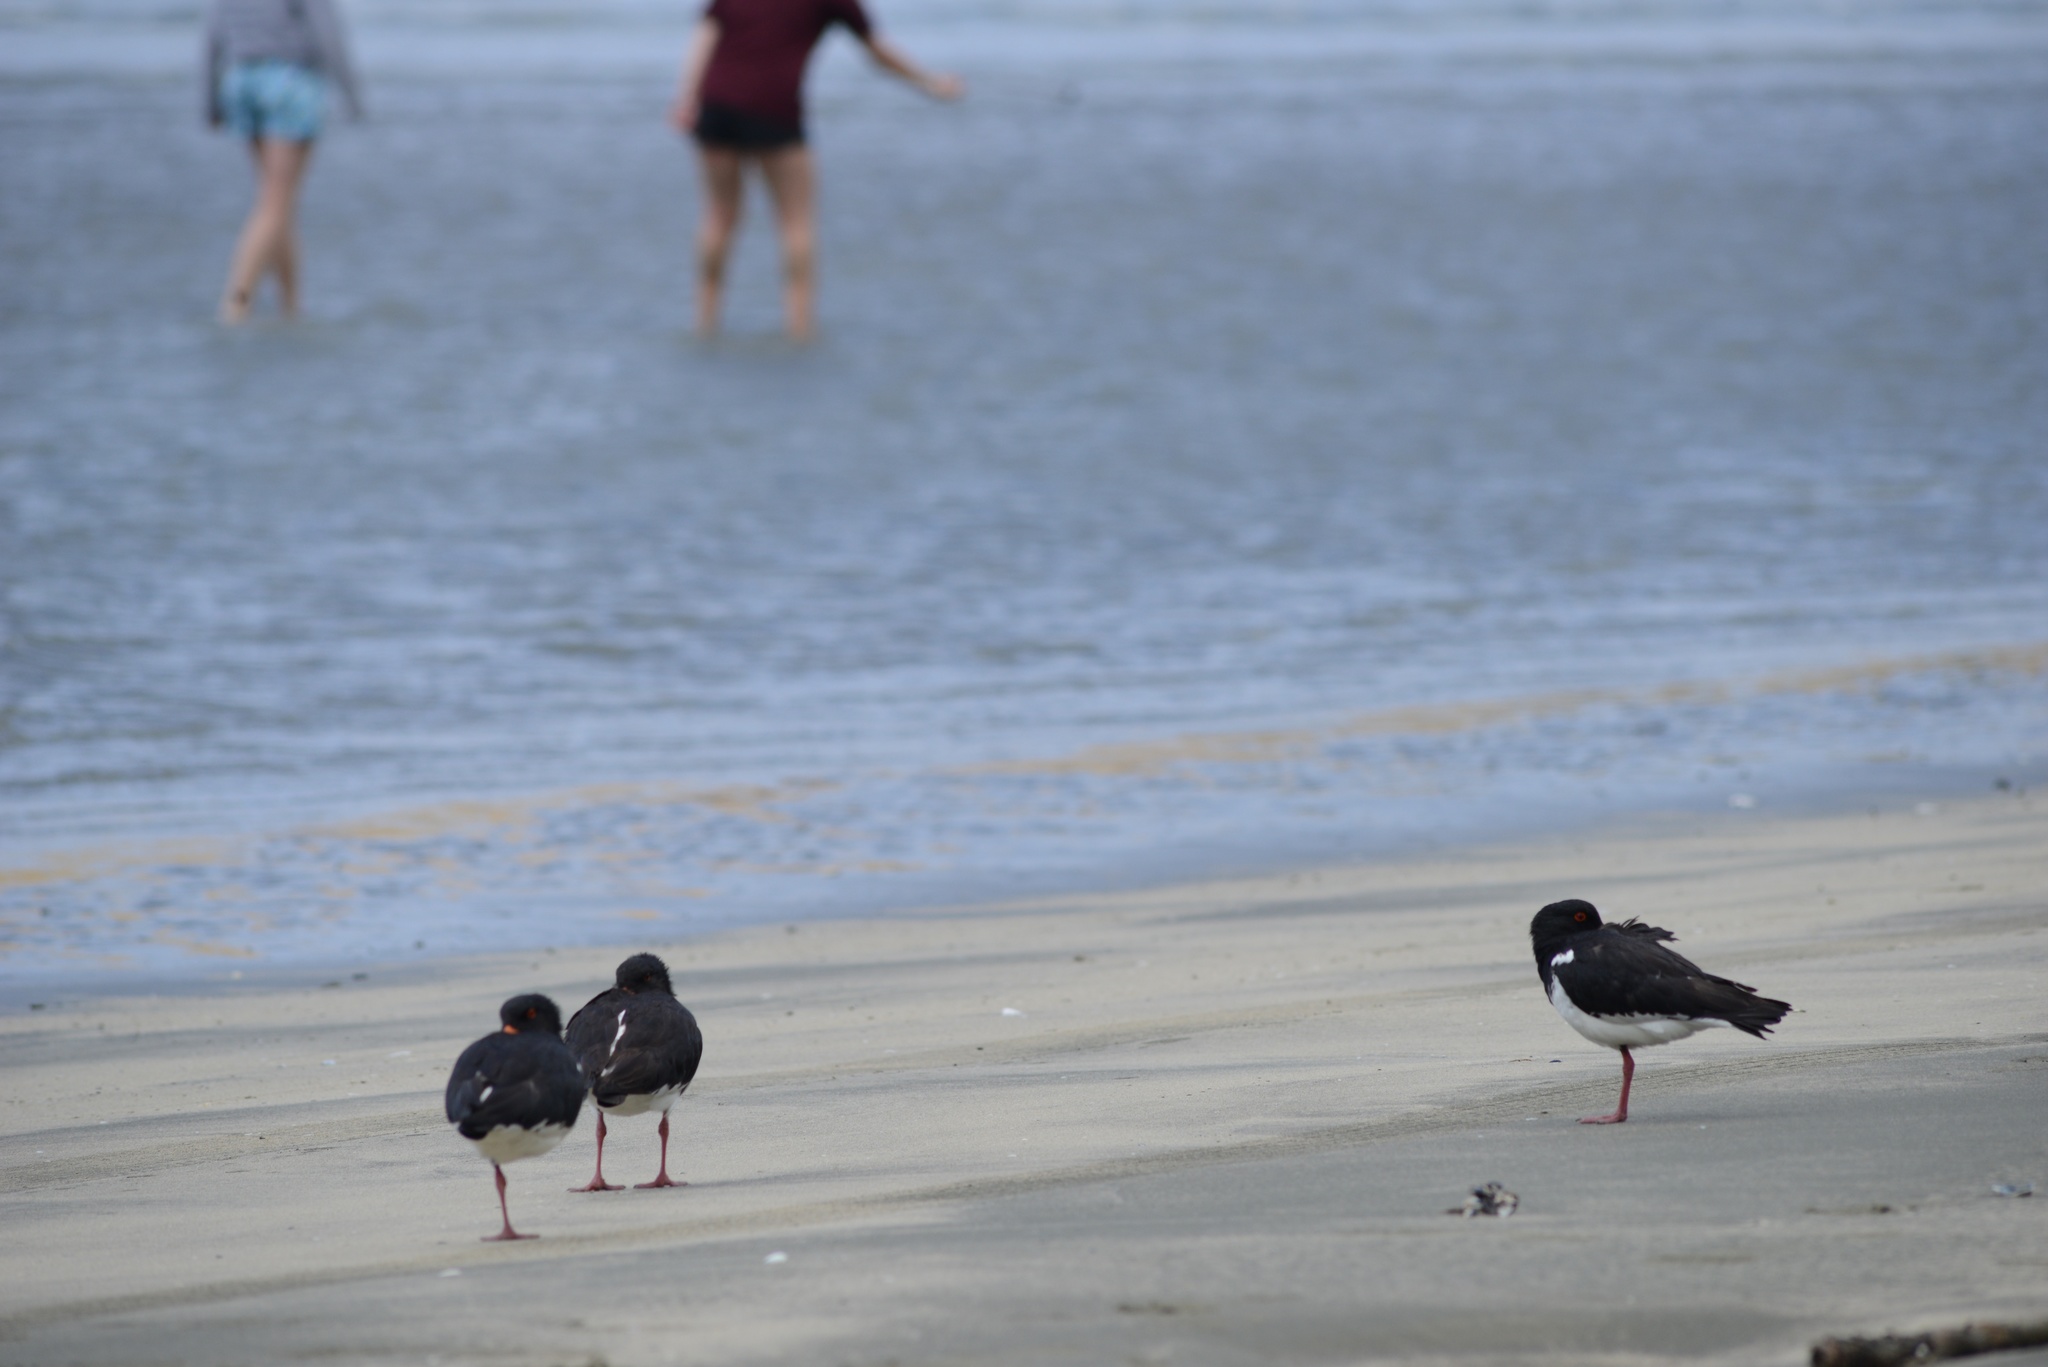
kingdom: Animalia
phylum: Chordata
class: Aves
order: Charadriiformes
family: Haematopodidae
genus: Haematopus
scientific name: Haematopus finschi
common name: South island oystercatcher
